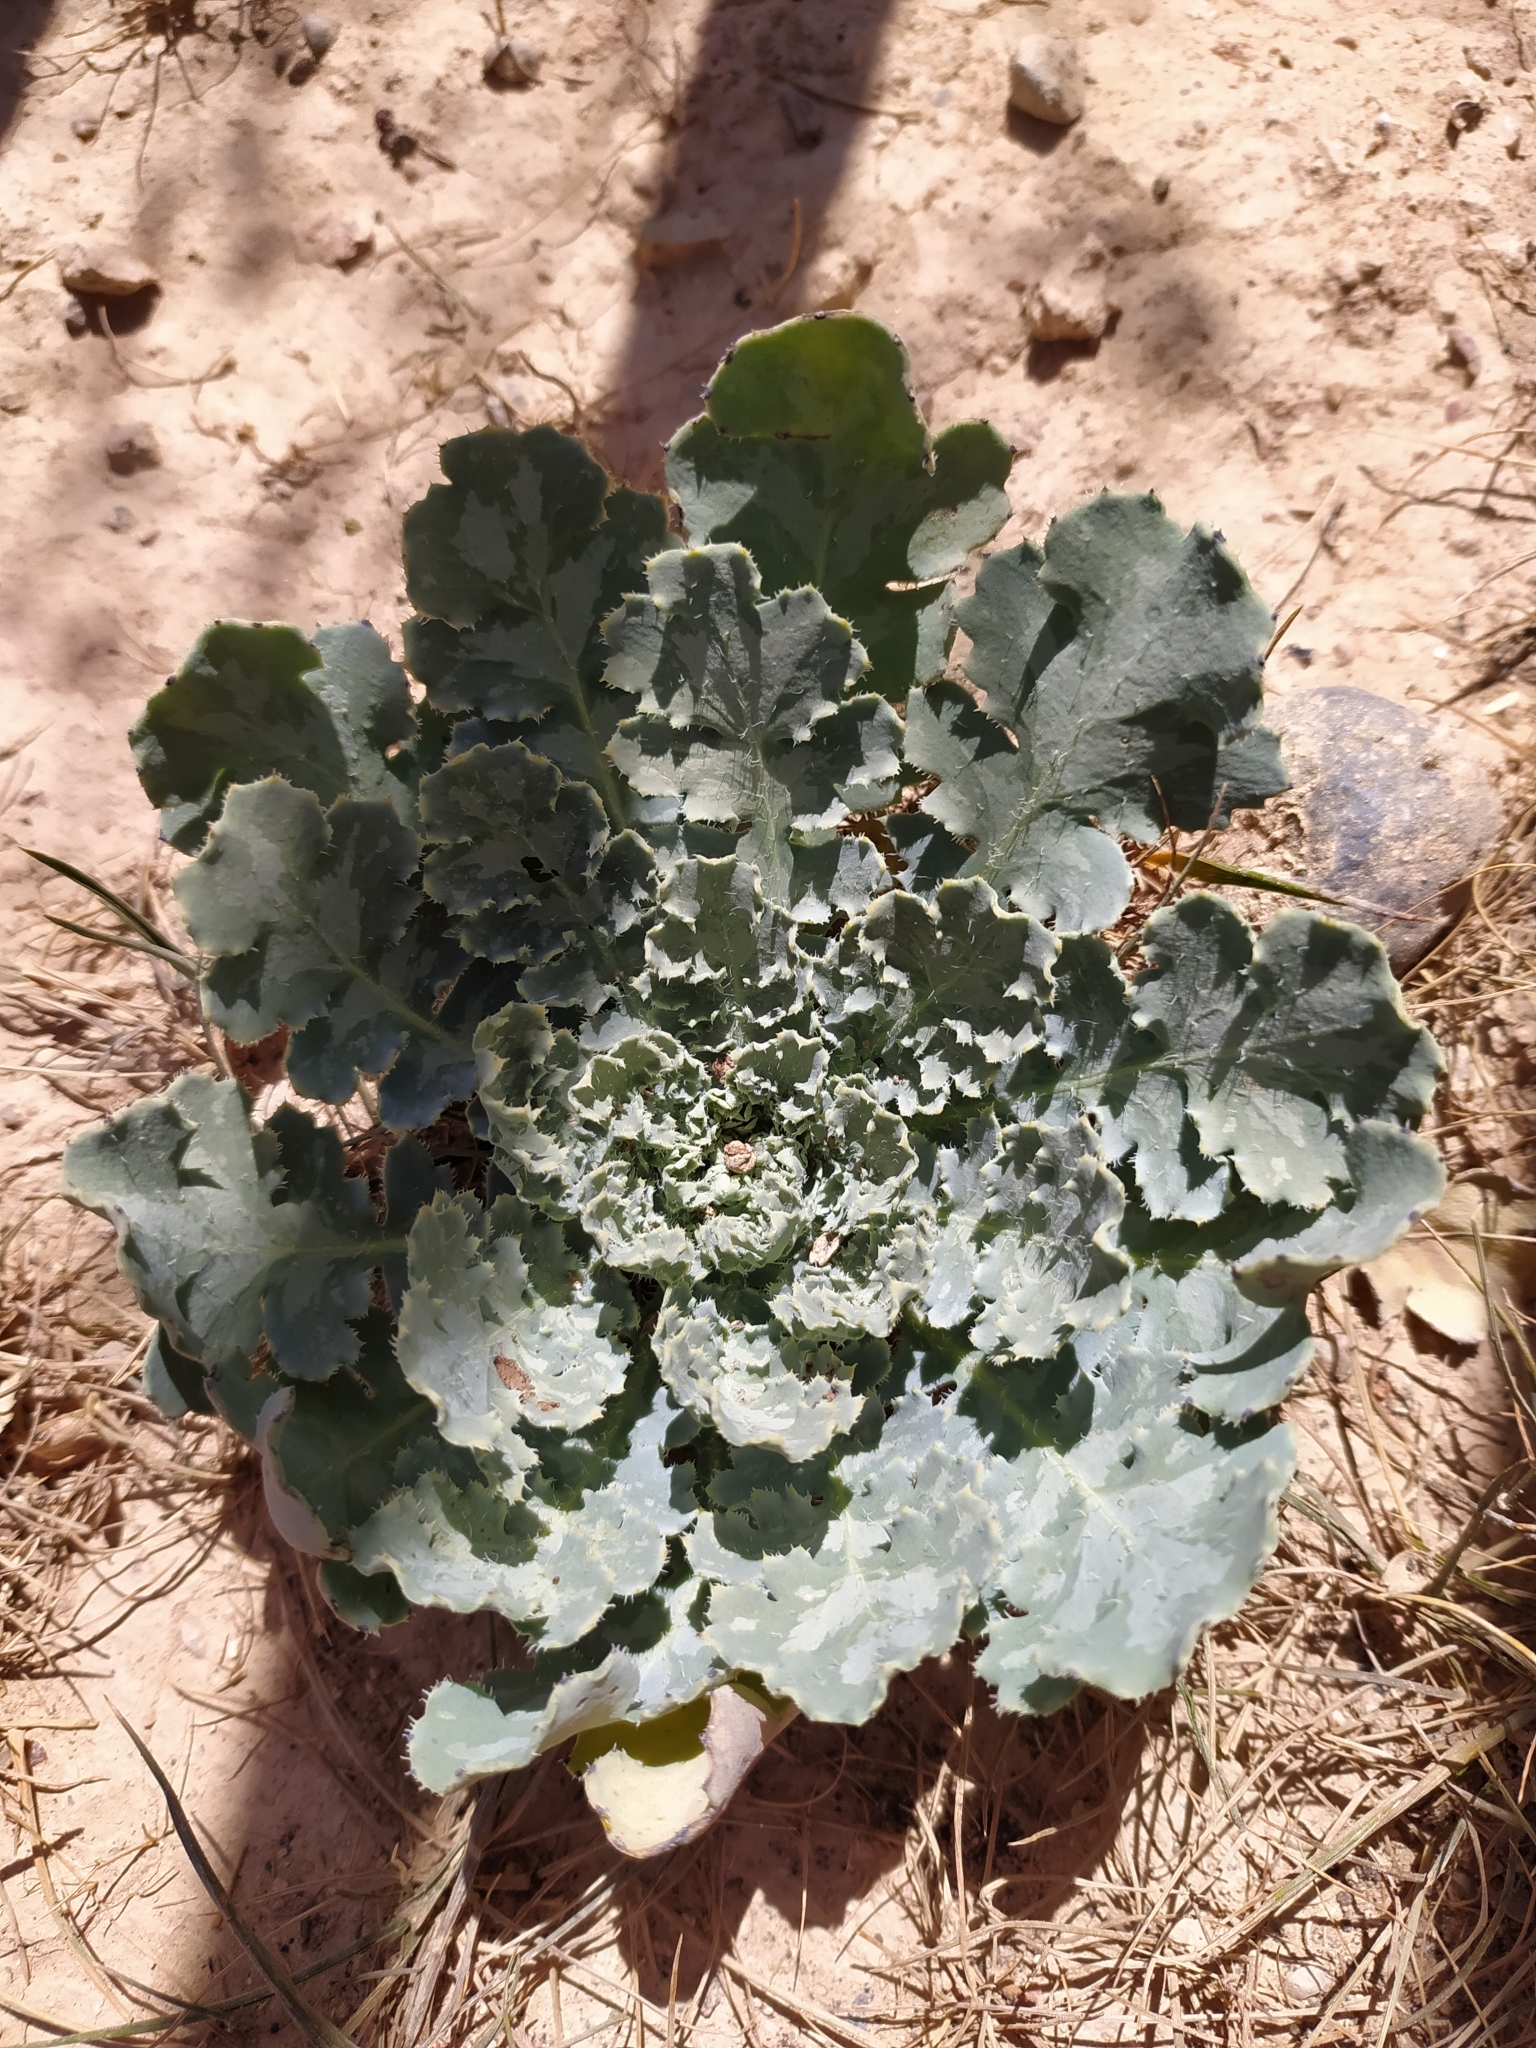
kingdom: Plantae
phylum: Tracheophyta
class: Magnoliopsida
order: Ranunculales
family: Papaveraceae
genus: Glaucium
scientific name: Glaucium fimbrilligerum
